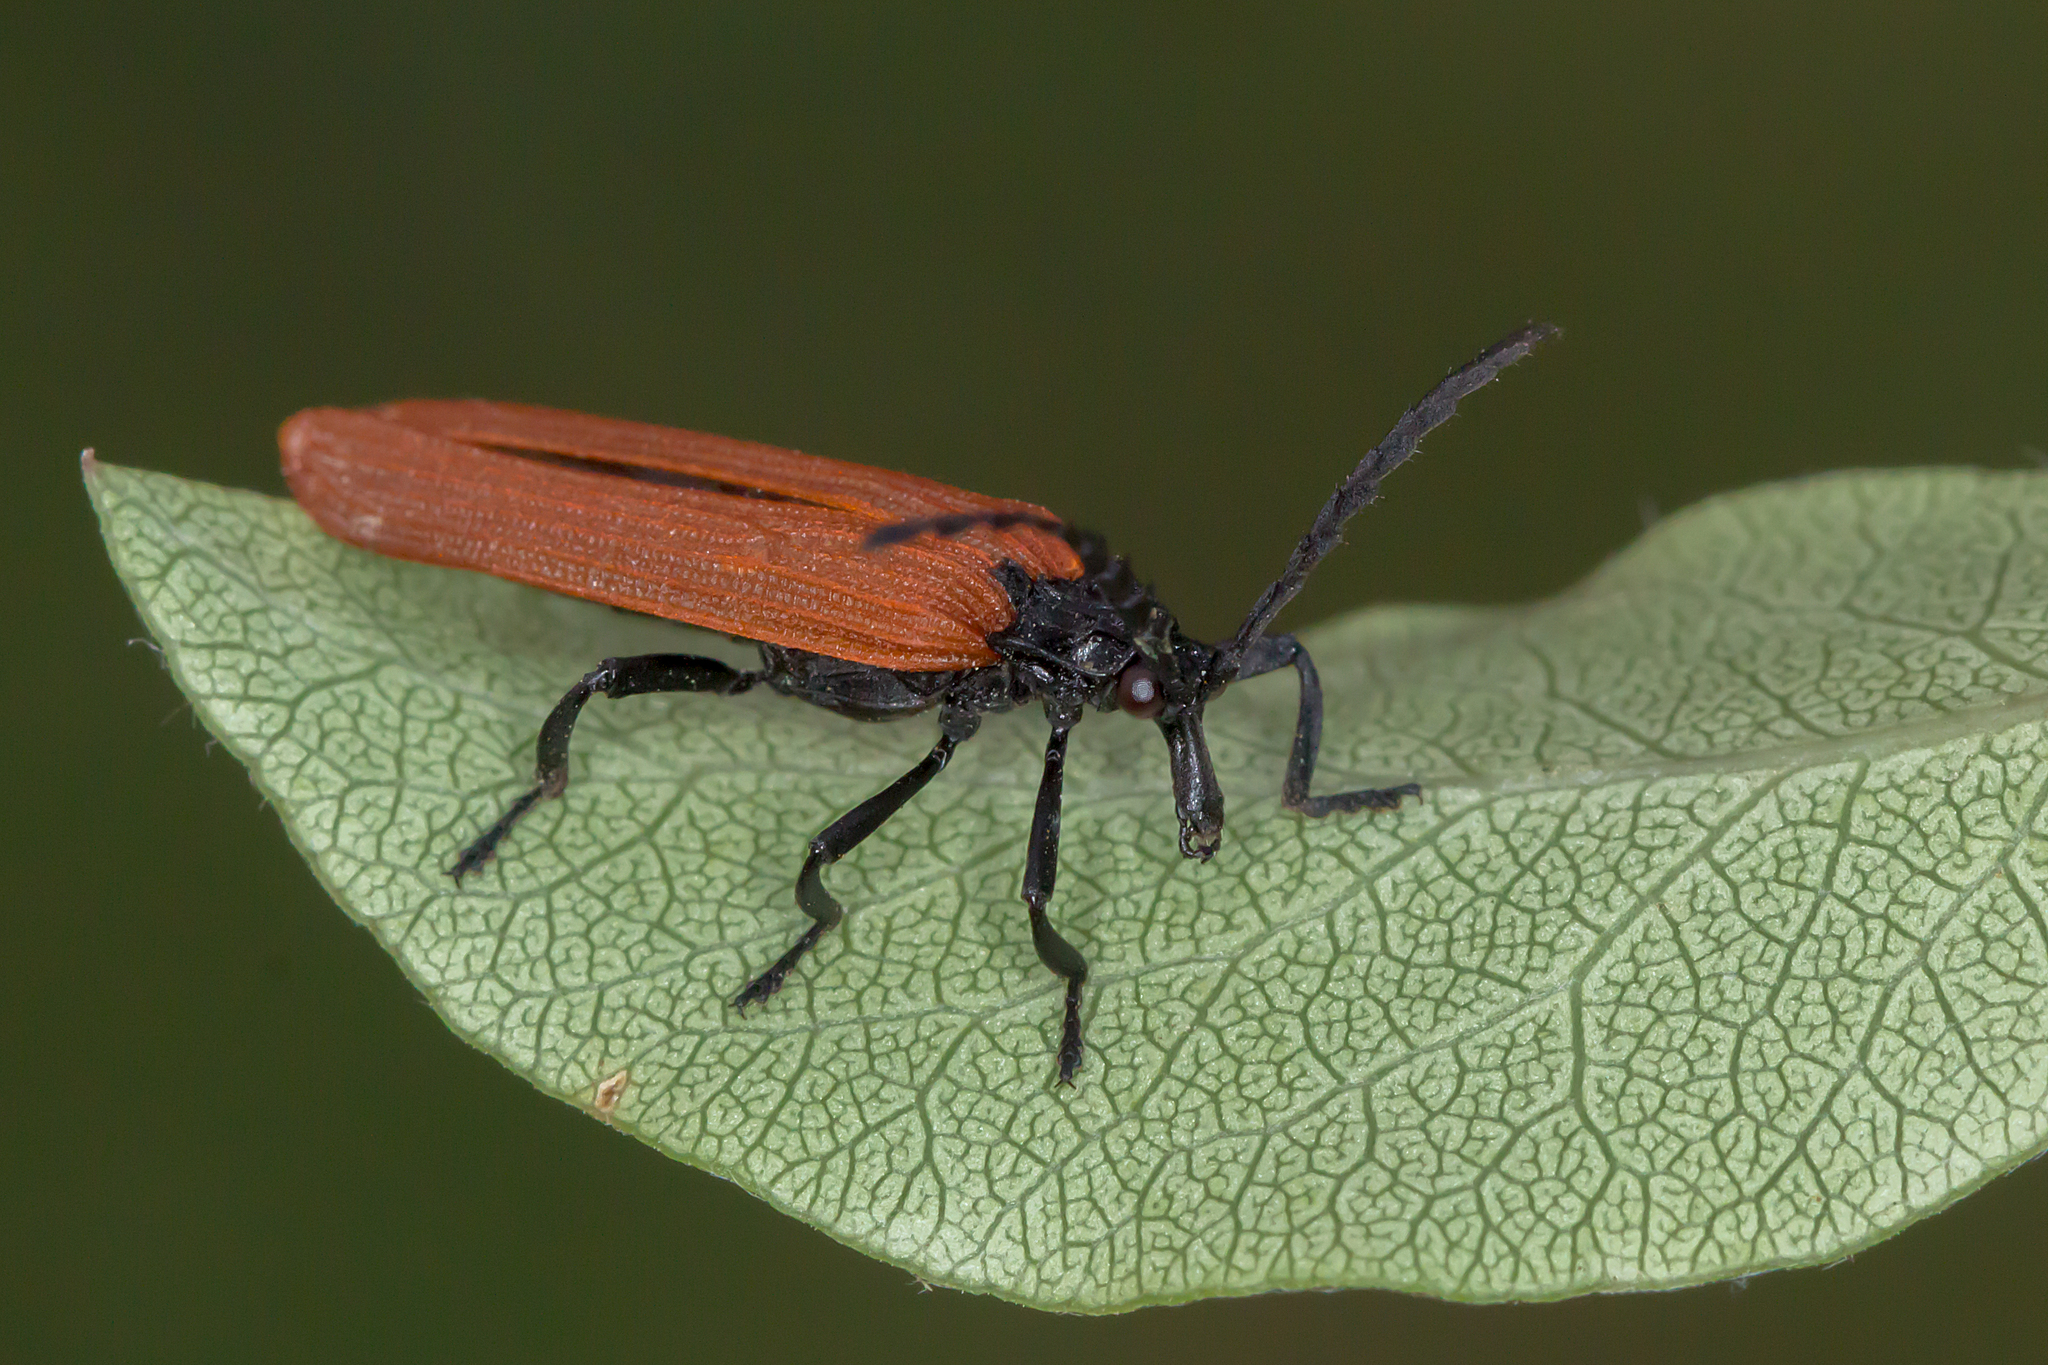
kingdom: Animalia
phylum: Arthropoda
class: Insecta
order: Coleoptera
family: Lycidae
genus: Porrostoma
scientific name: Porrostoma rhipidium
